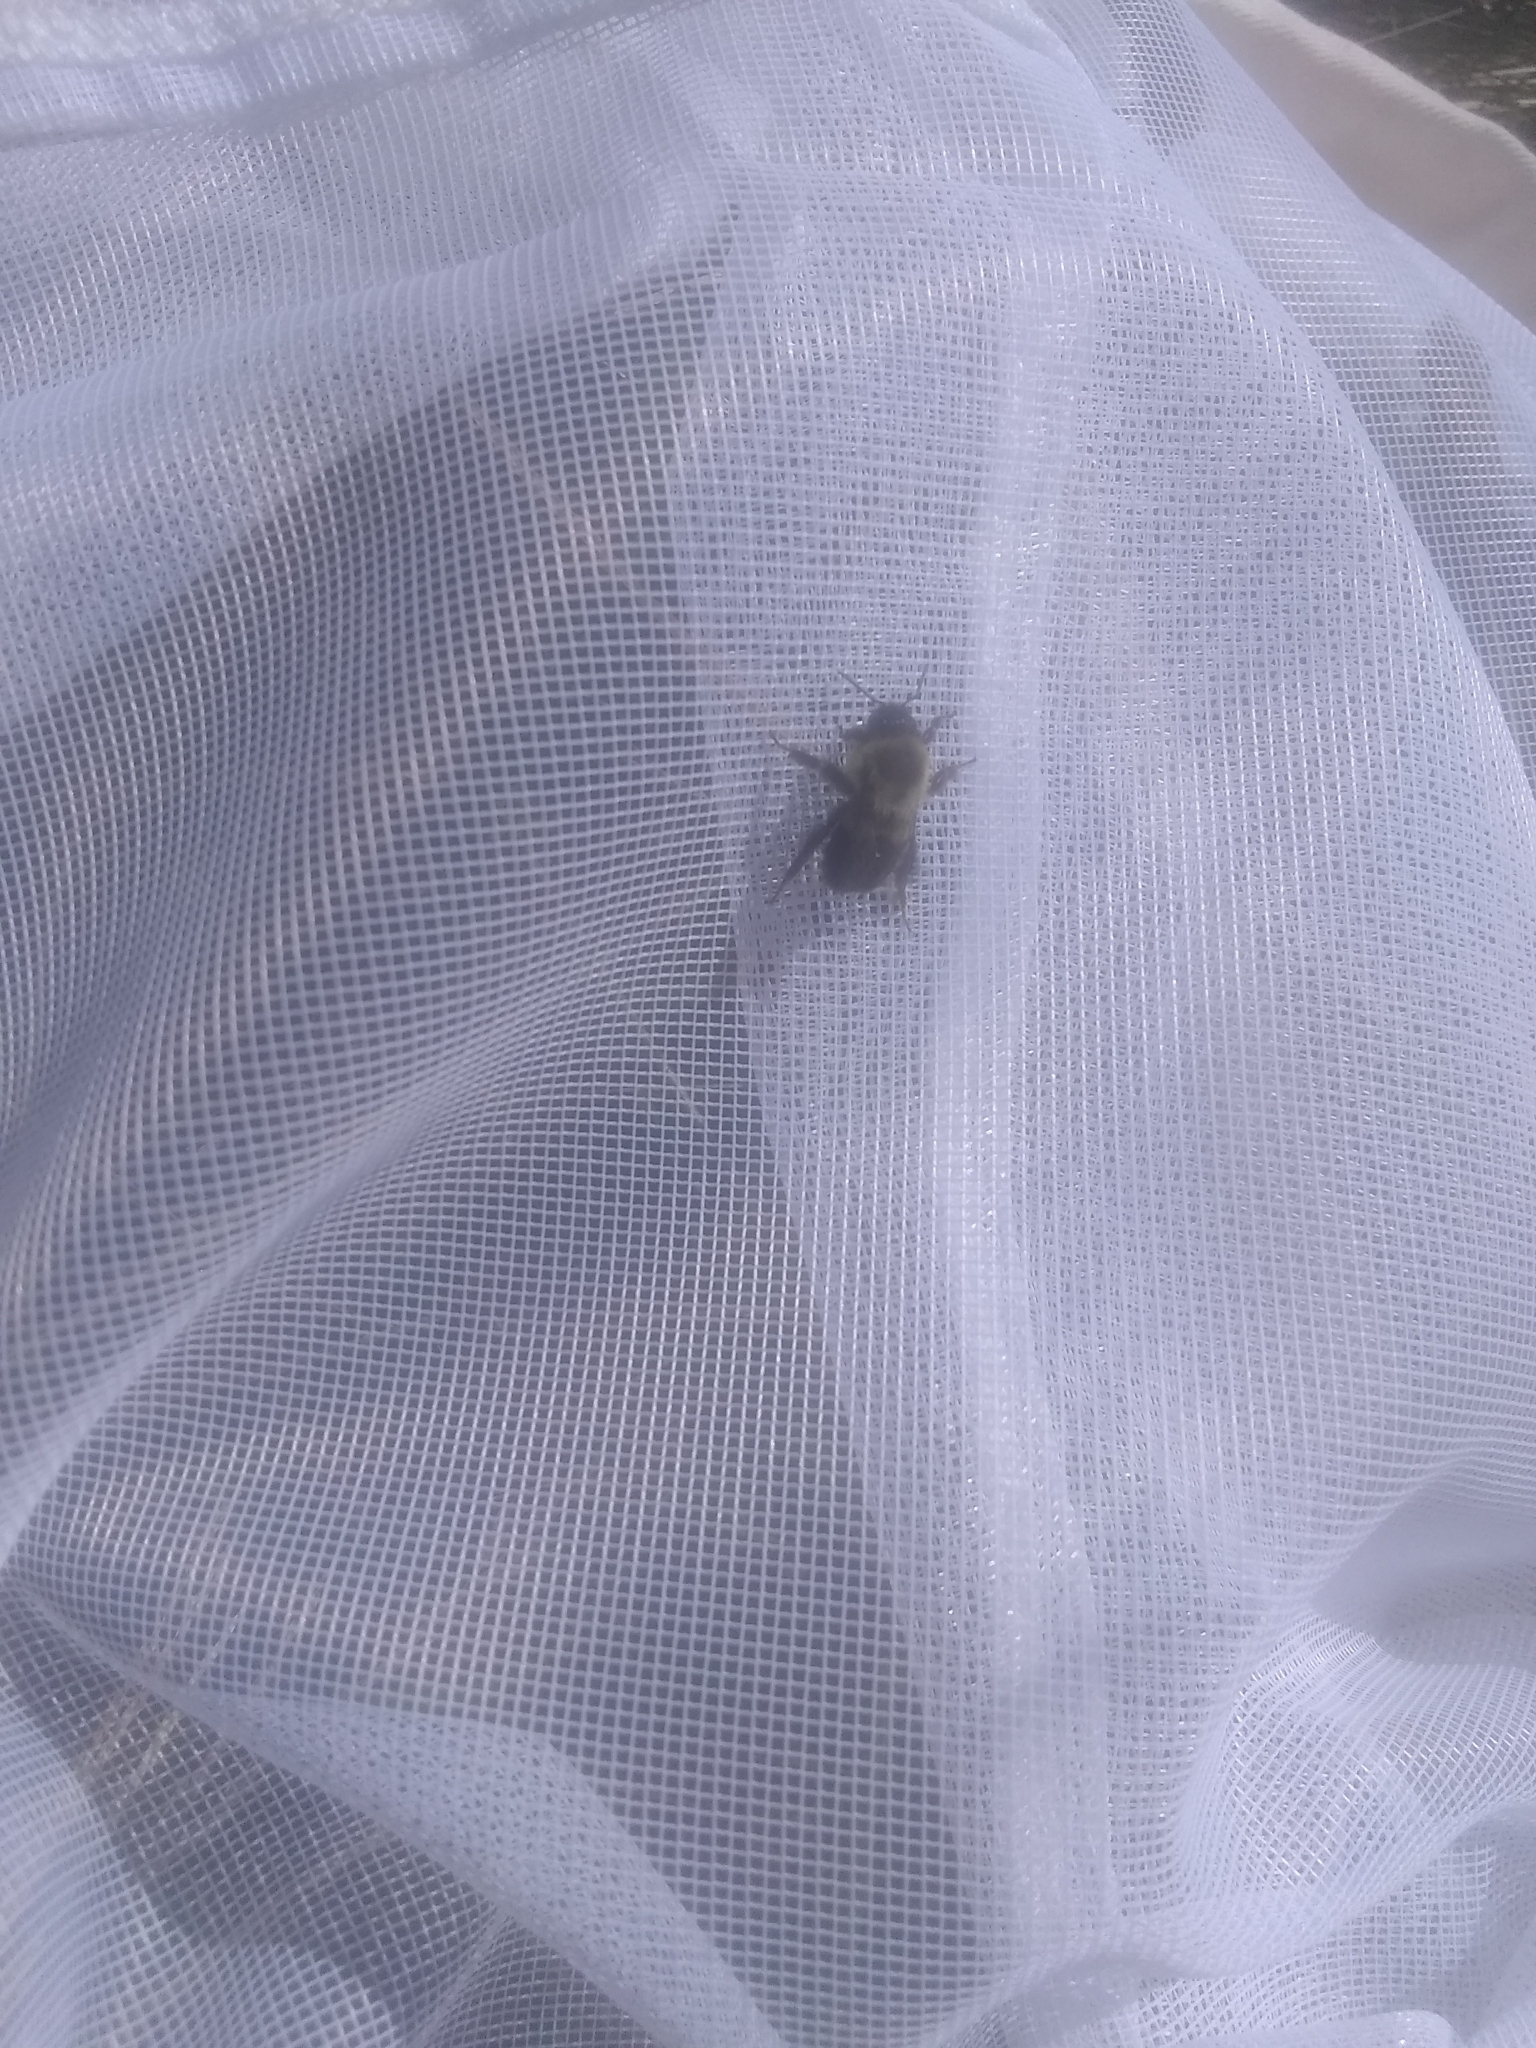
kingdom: Animalia
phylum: Arthropoda
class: Insecta
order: Hymenoptera
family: Apidae
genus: Bombus
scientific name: Bombus impatiens
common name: Common eastern bumble bee
